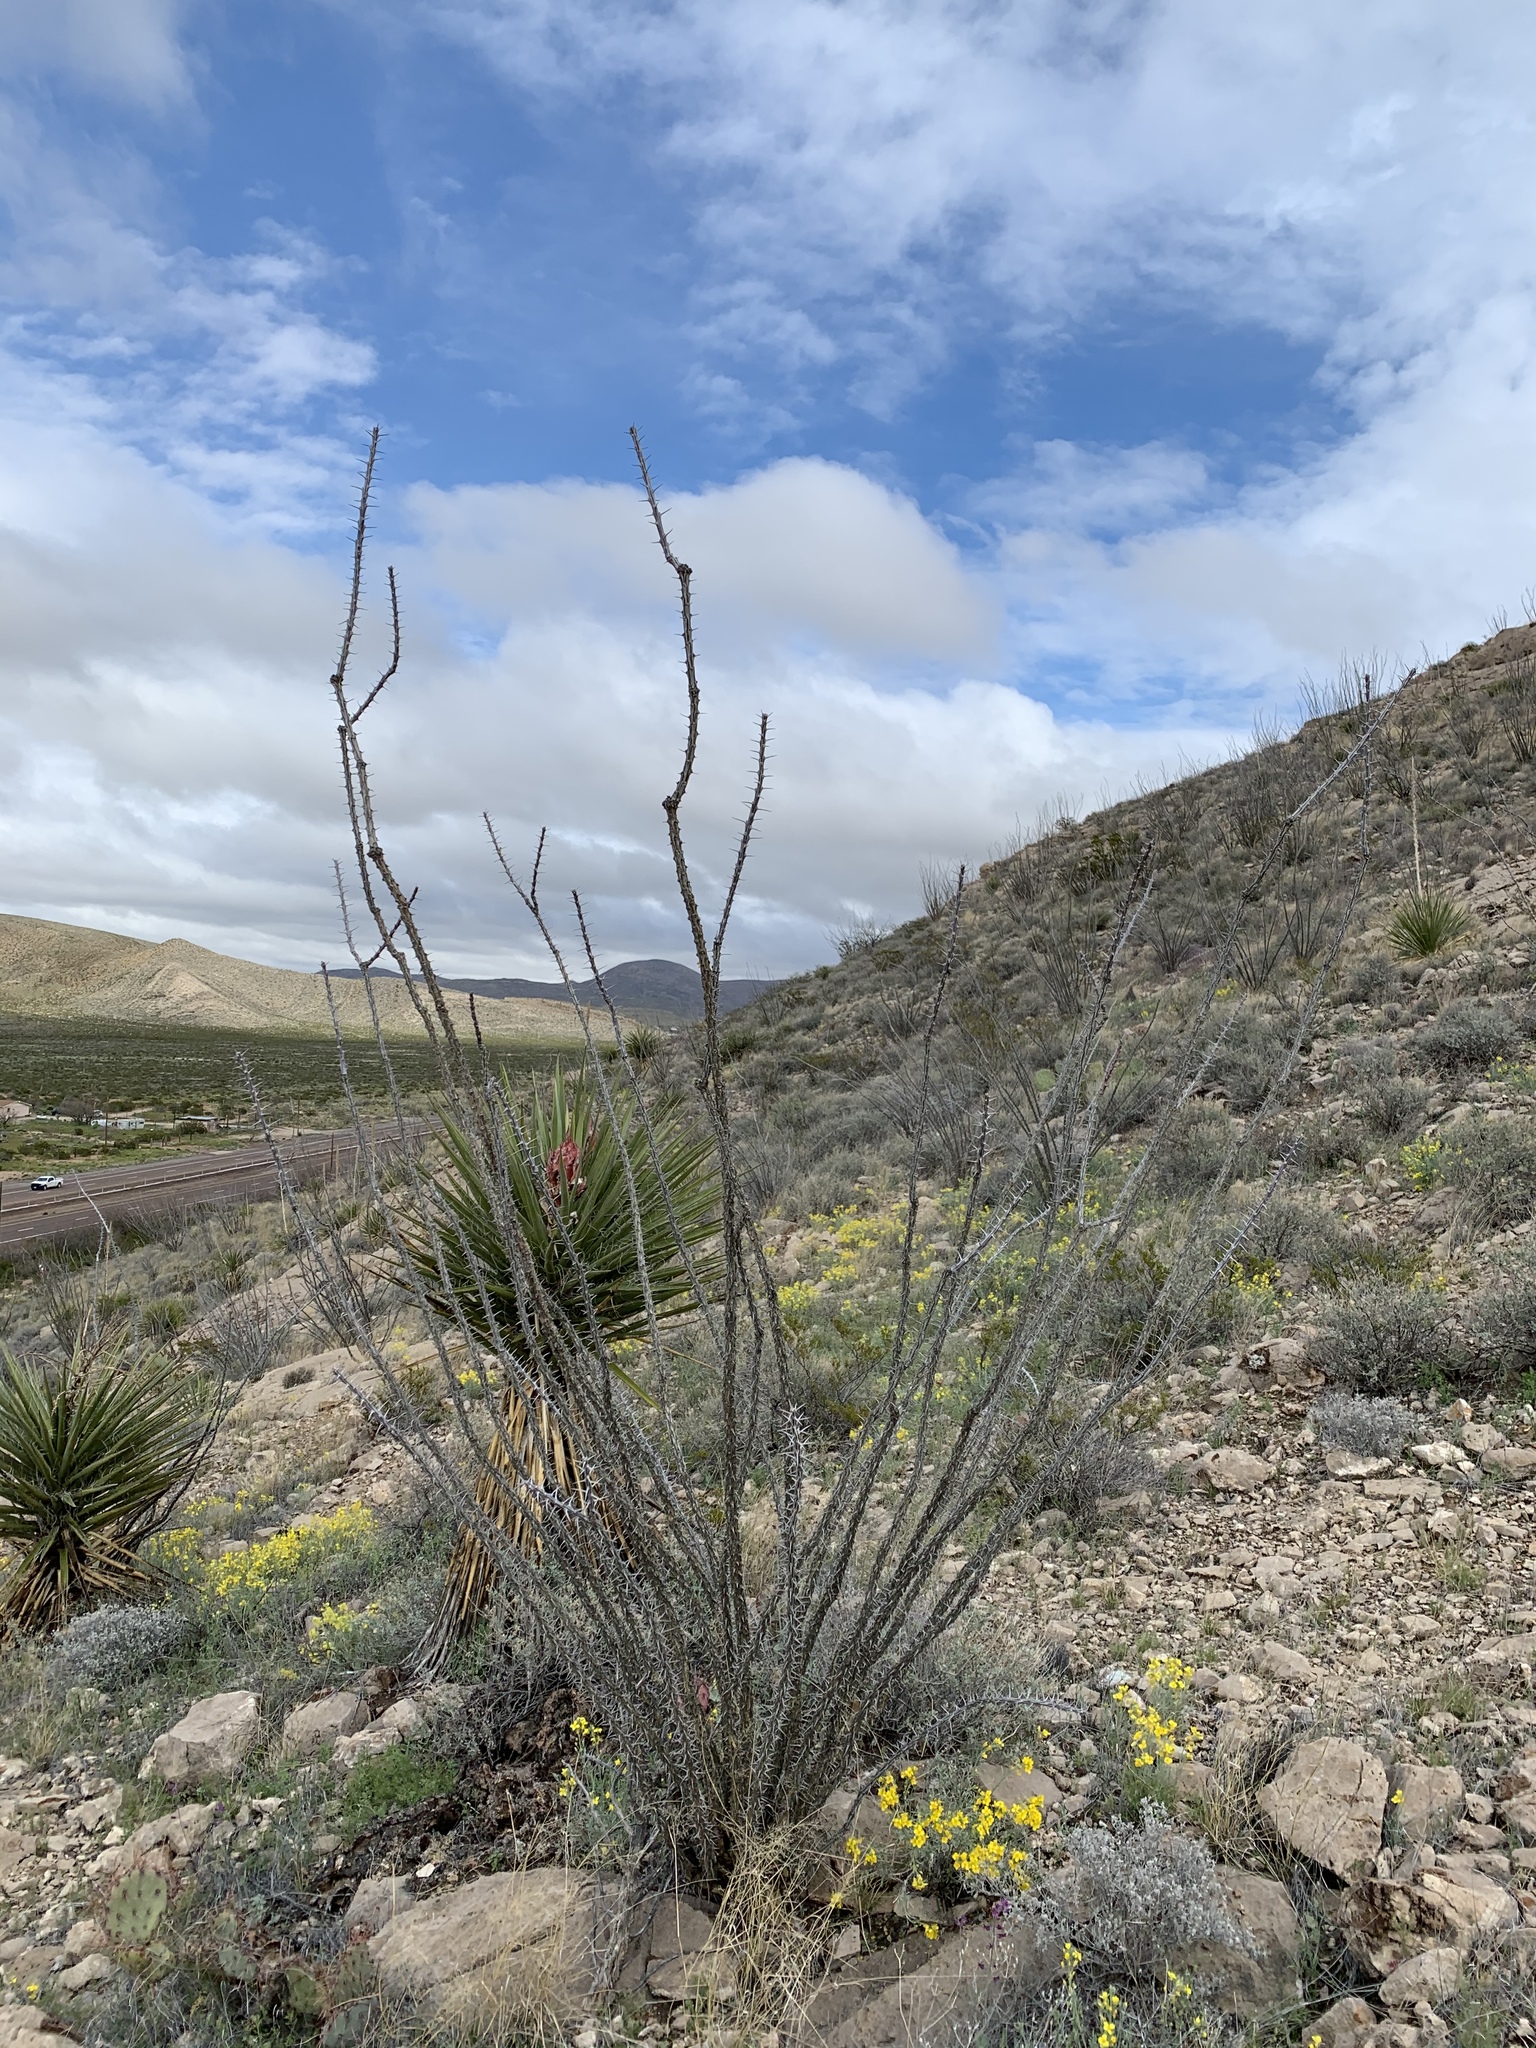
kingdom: Plantae
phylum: Tracheophyta
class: Magnoliopsida
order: Ericales
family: Fouquieriaceae
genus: Fouquieria
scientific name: Fouquieria splendens
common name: Vine-cactus
